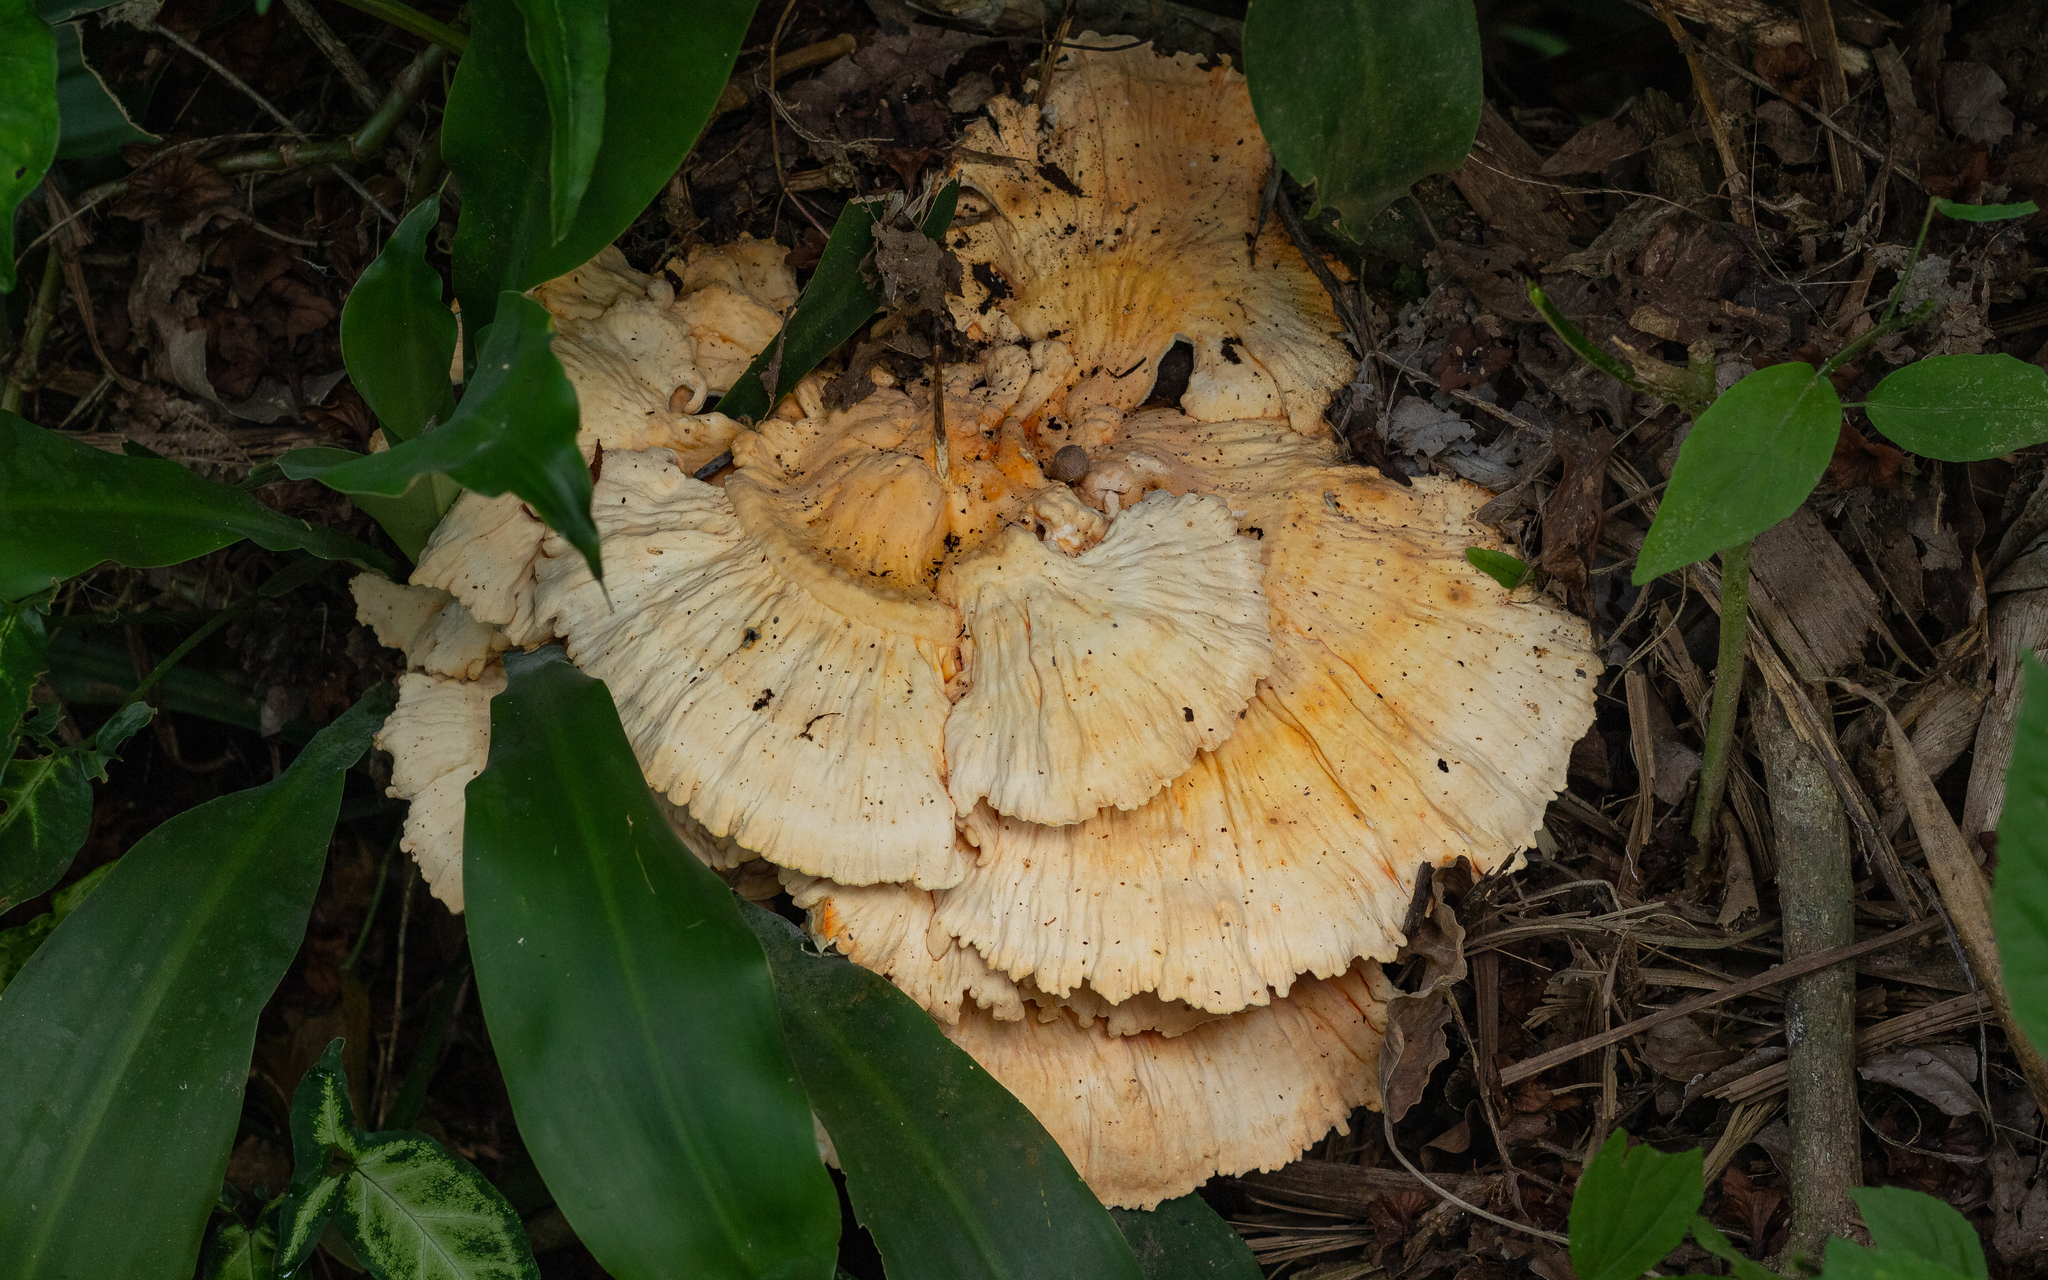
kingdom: Fungi
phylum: Basidiomycota
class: Agaricomycetes
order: Polyporales
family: Laetiporaceae
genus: Laetiporus
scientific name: Laetiporus gilbertsonii
